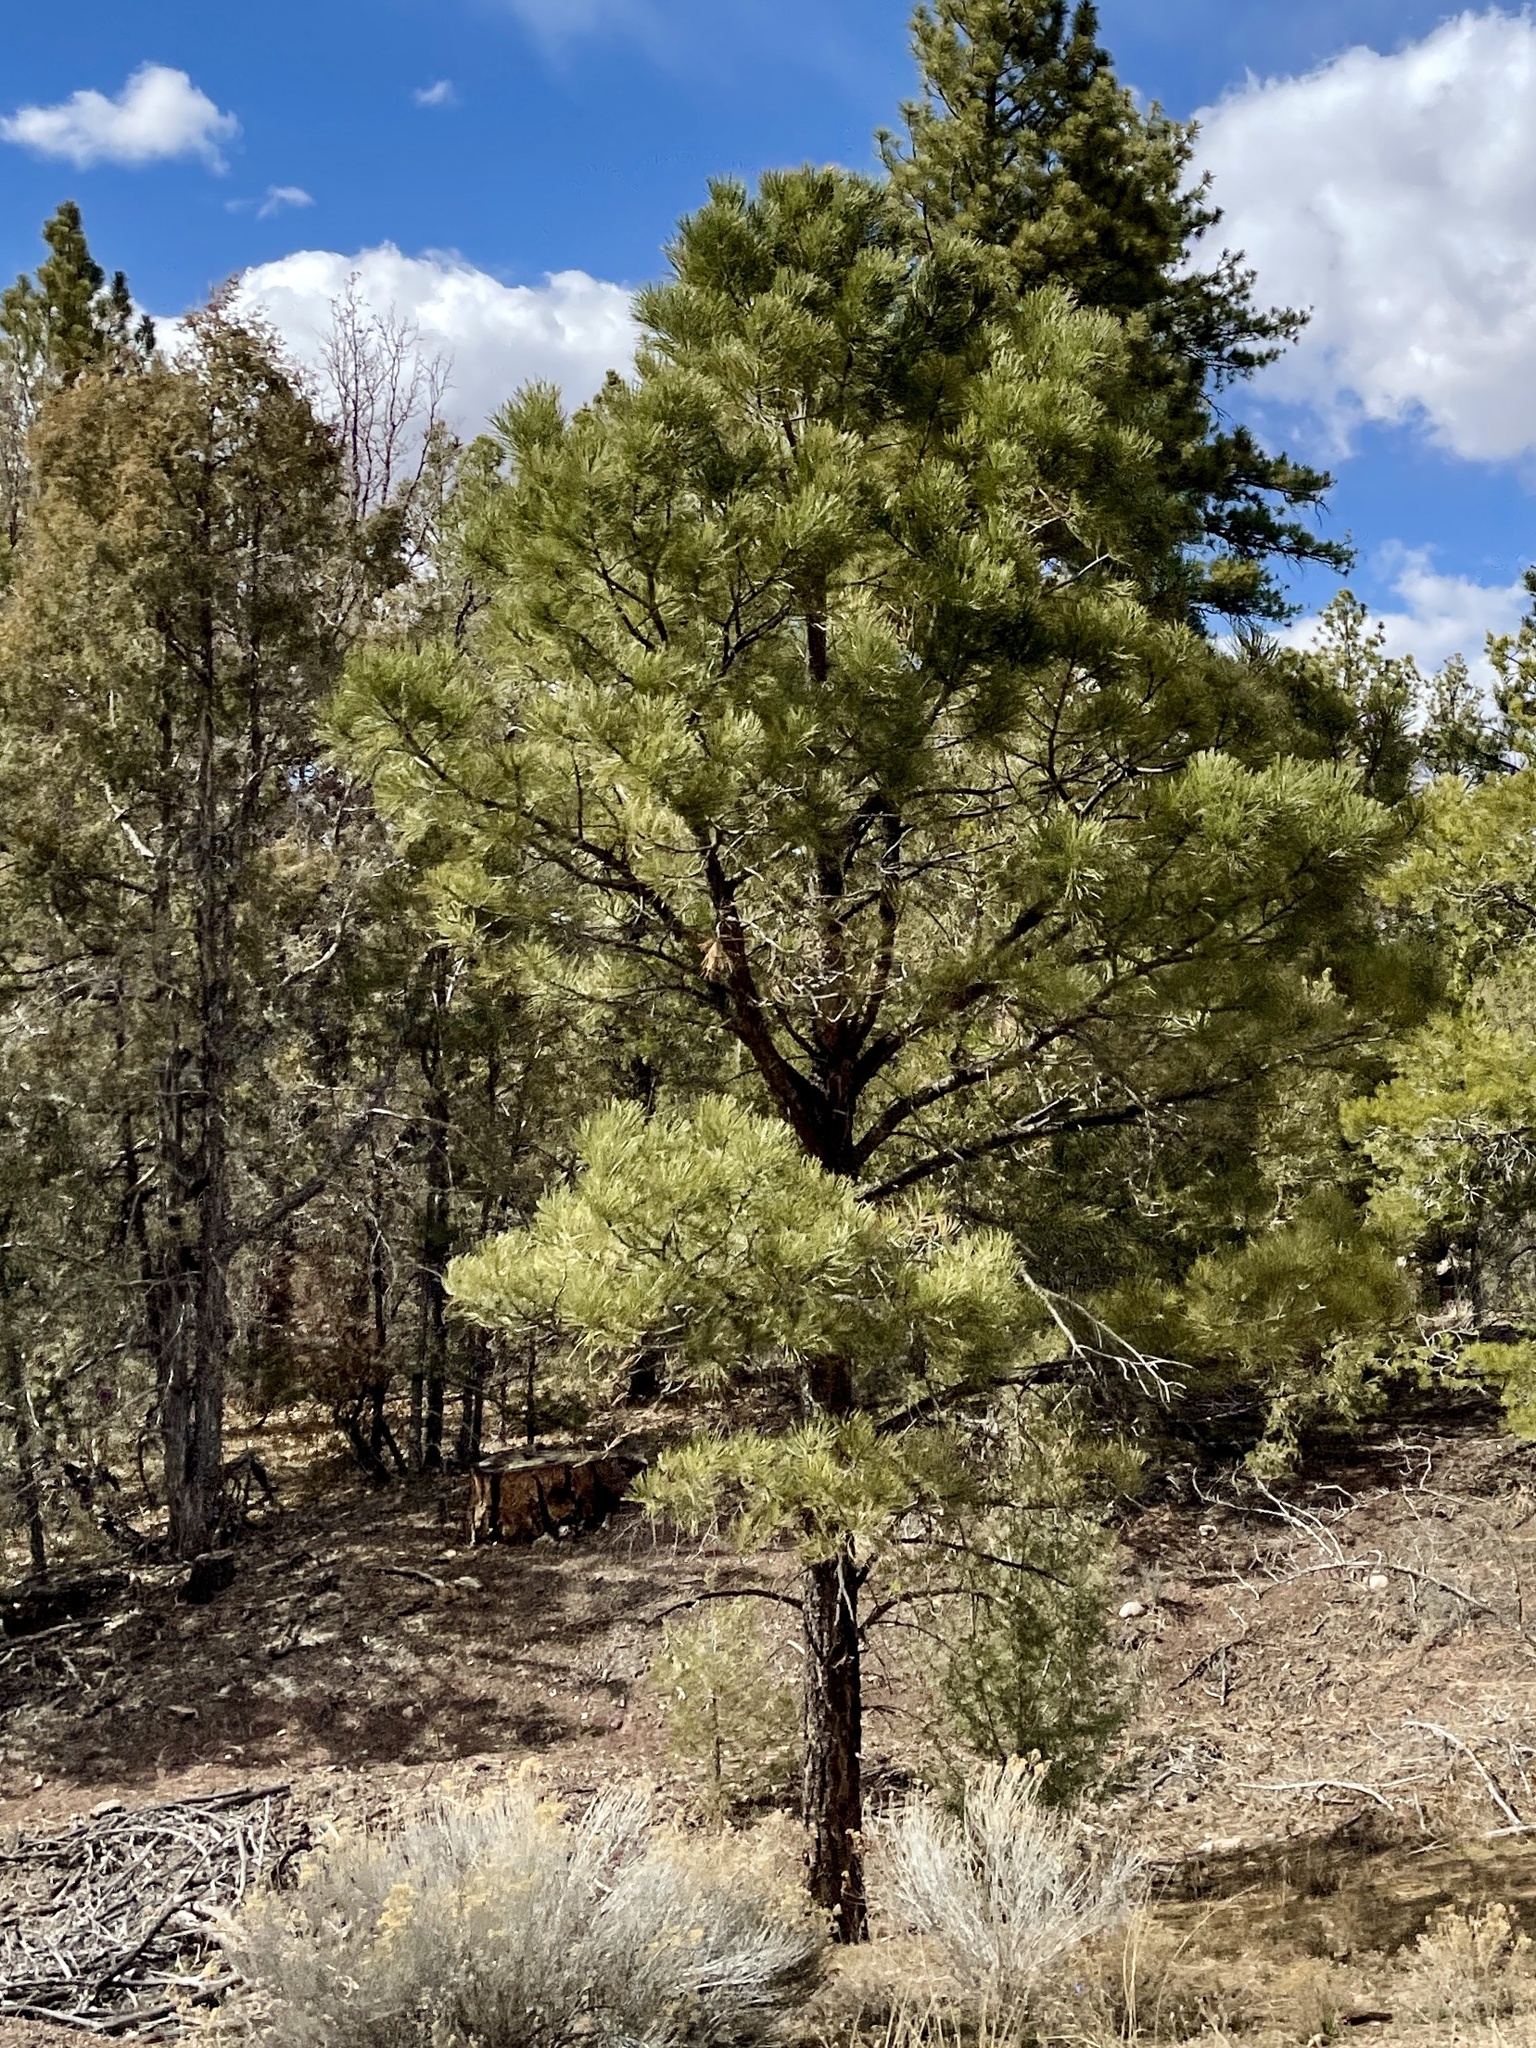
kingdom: Plantae
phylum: Tracheophyta
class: Pinopsida
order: Pinales
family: Pinaceae
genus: Pinus
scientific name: Pinus ponderosa
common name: Western yellow-pine
